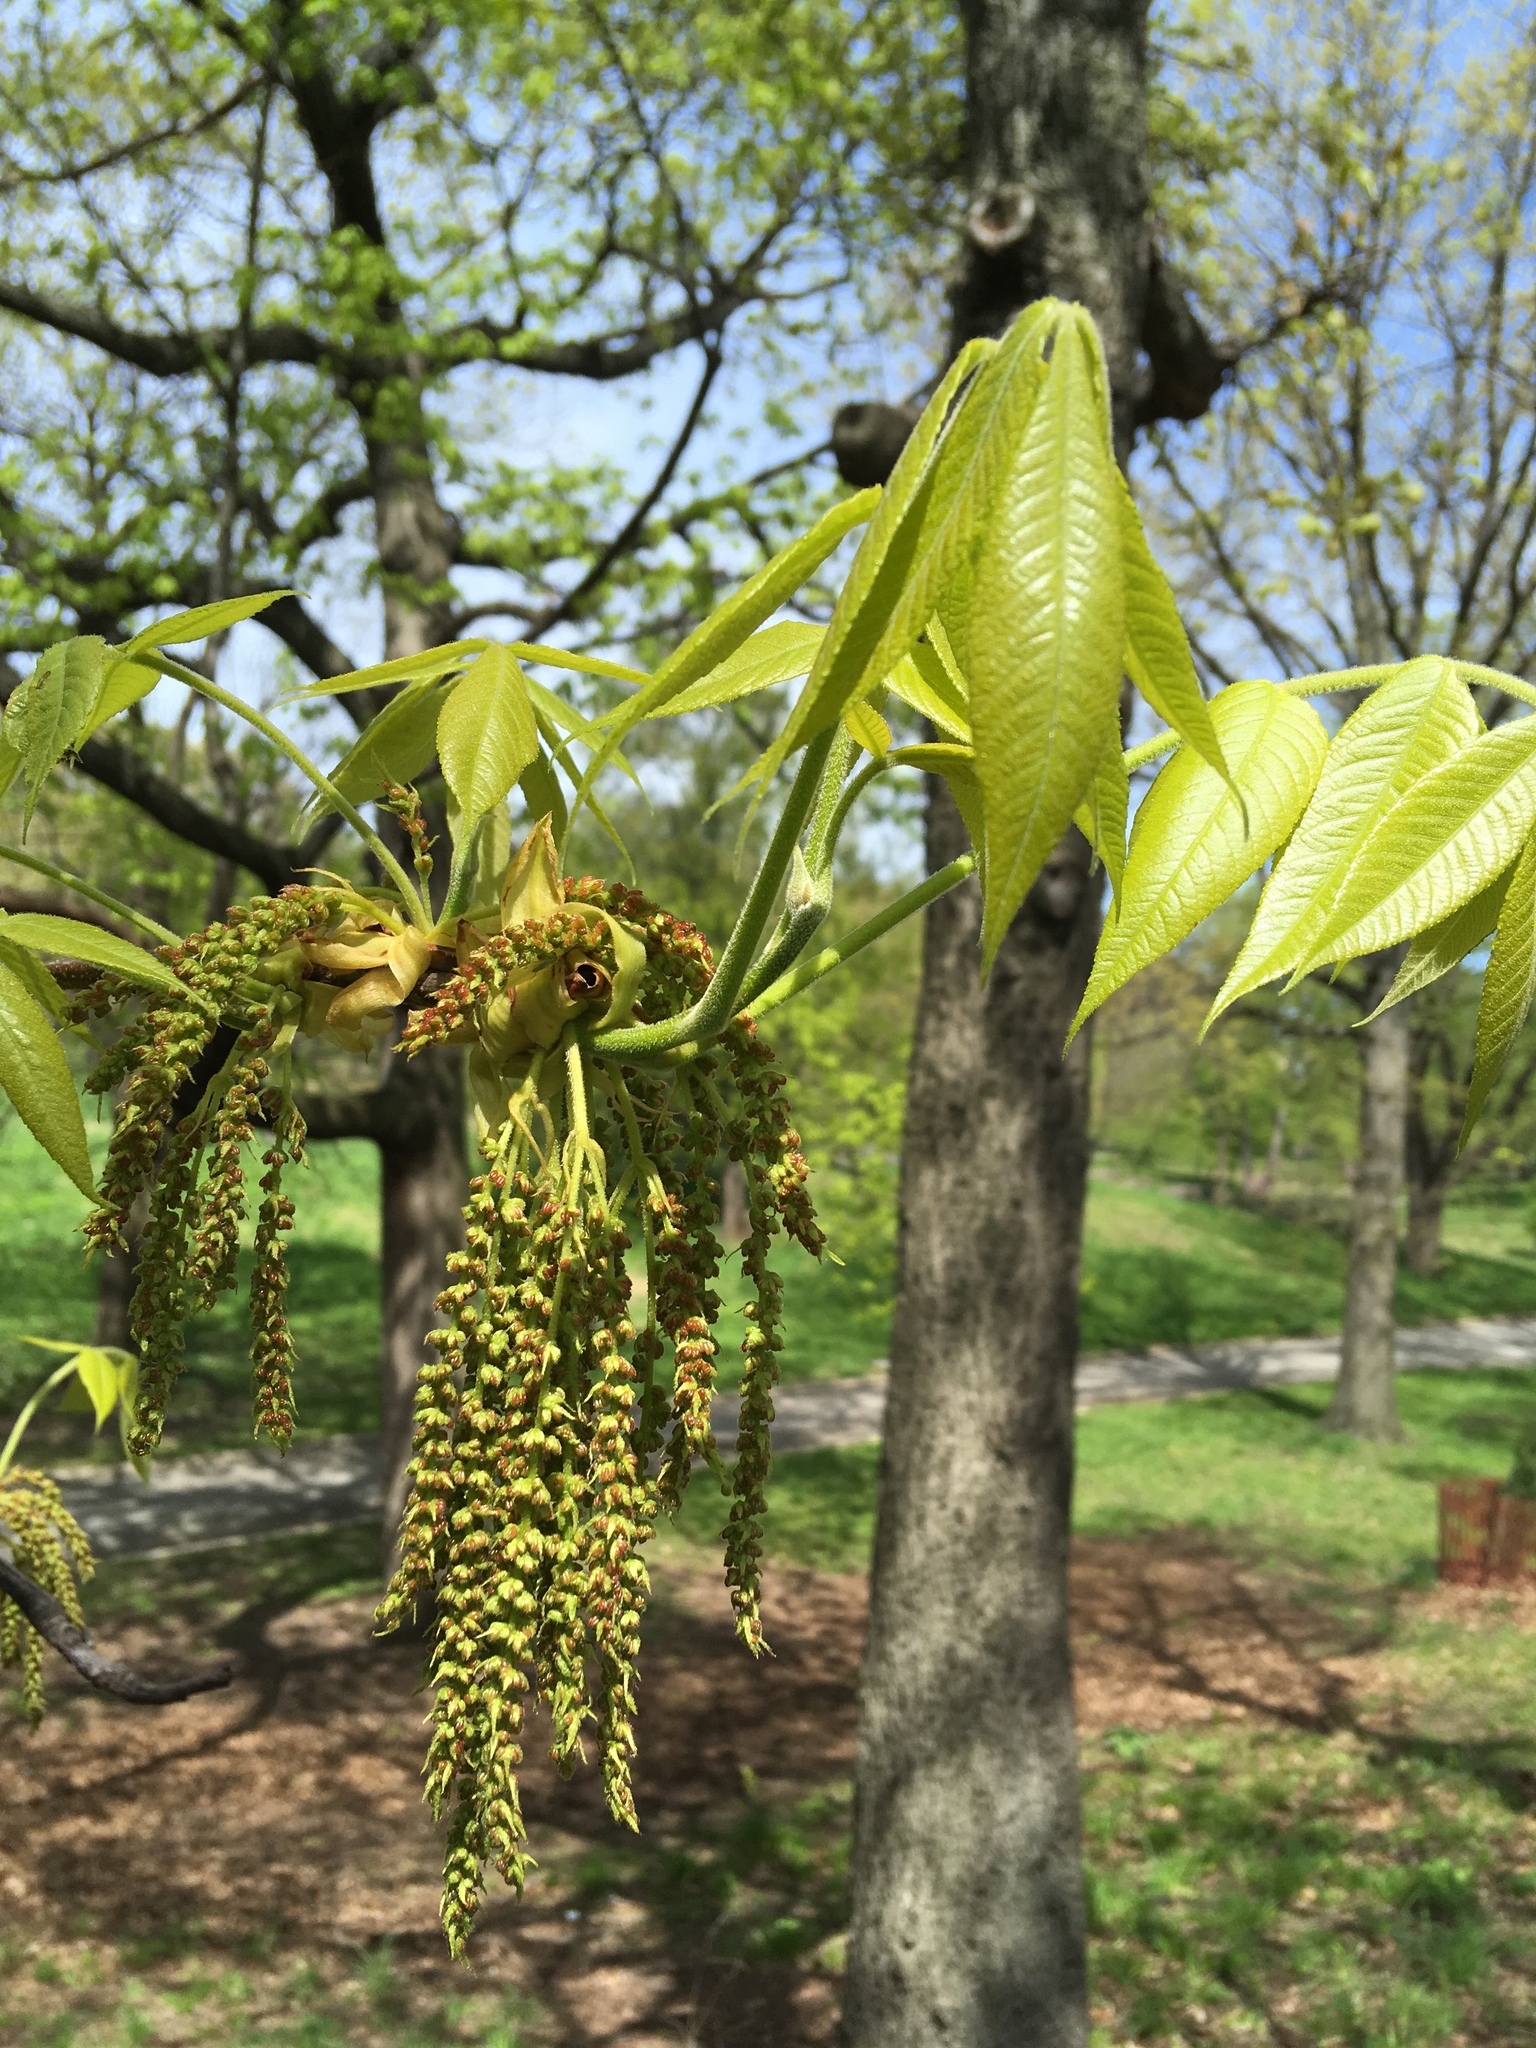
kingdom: Plantae
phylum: Tracheophyta
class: Magnoliopsida
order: Fagales
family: Juglandaceae
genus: Carya
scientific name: Carya alba
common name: Mockernut hickory
